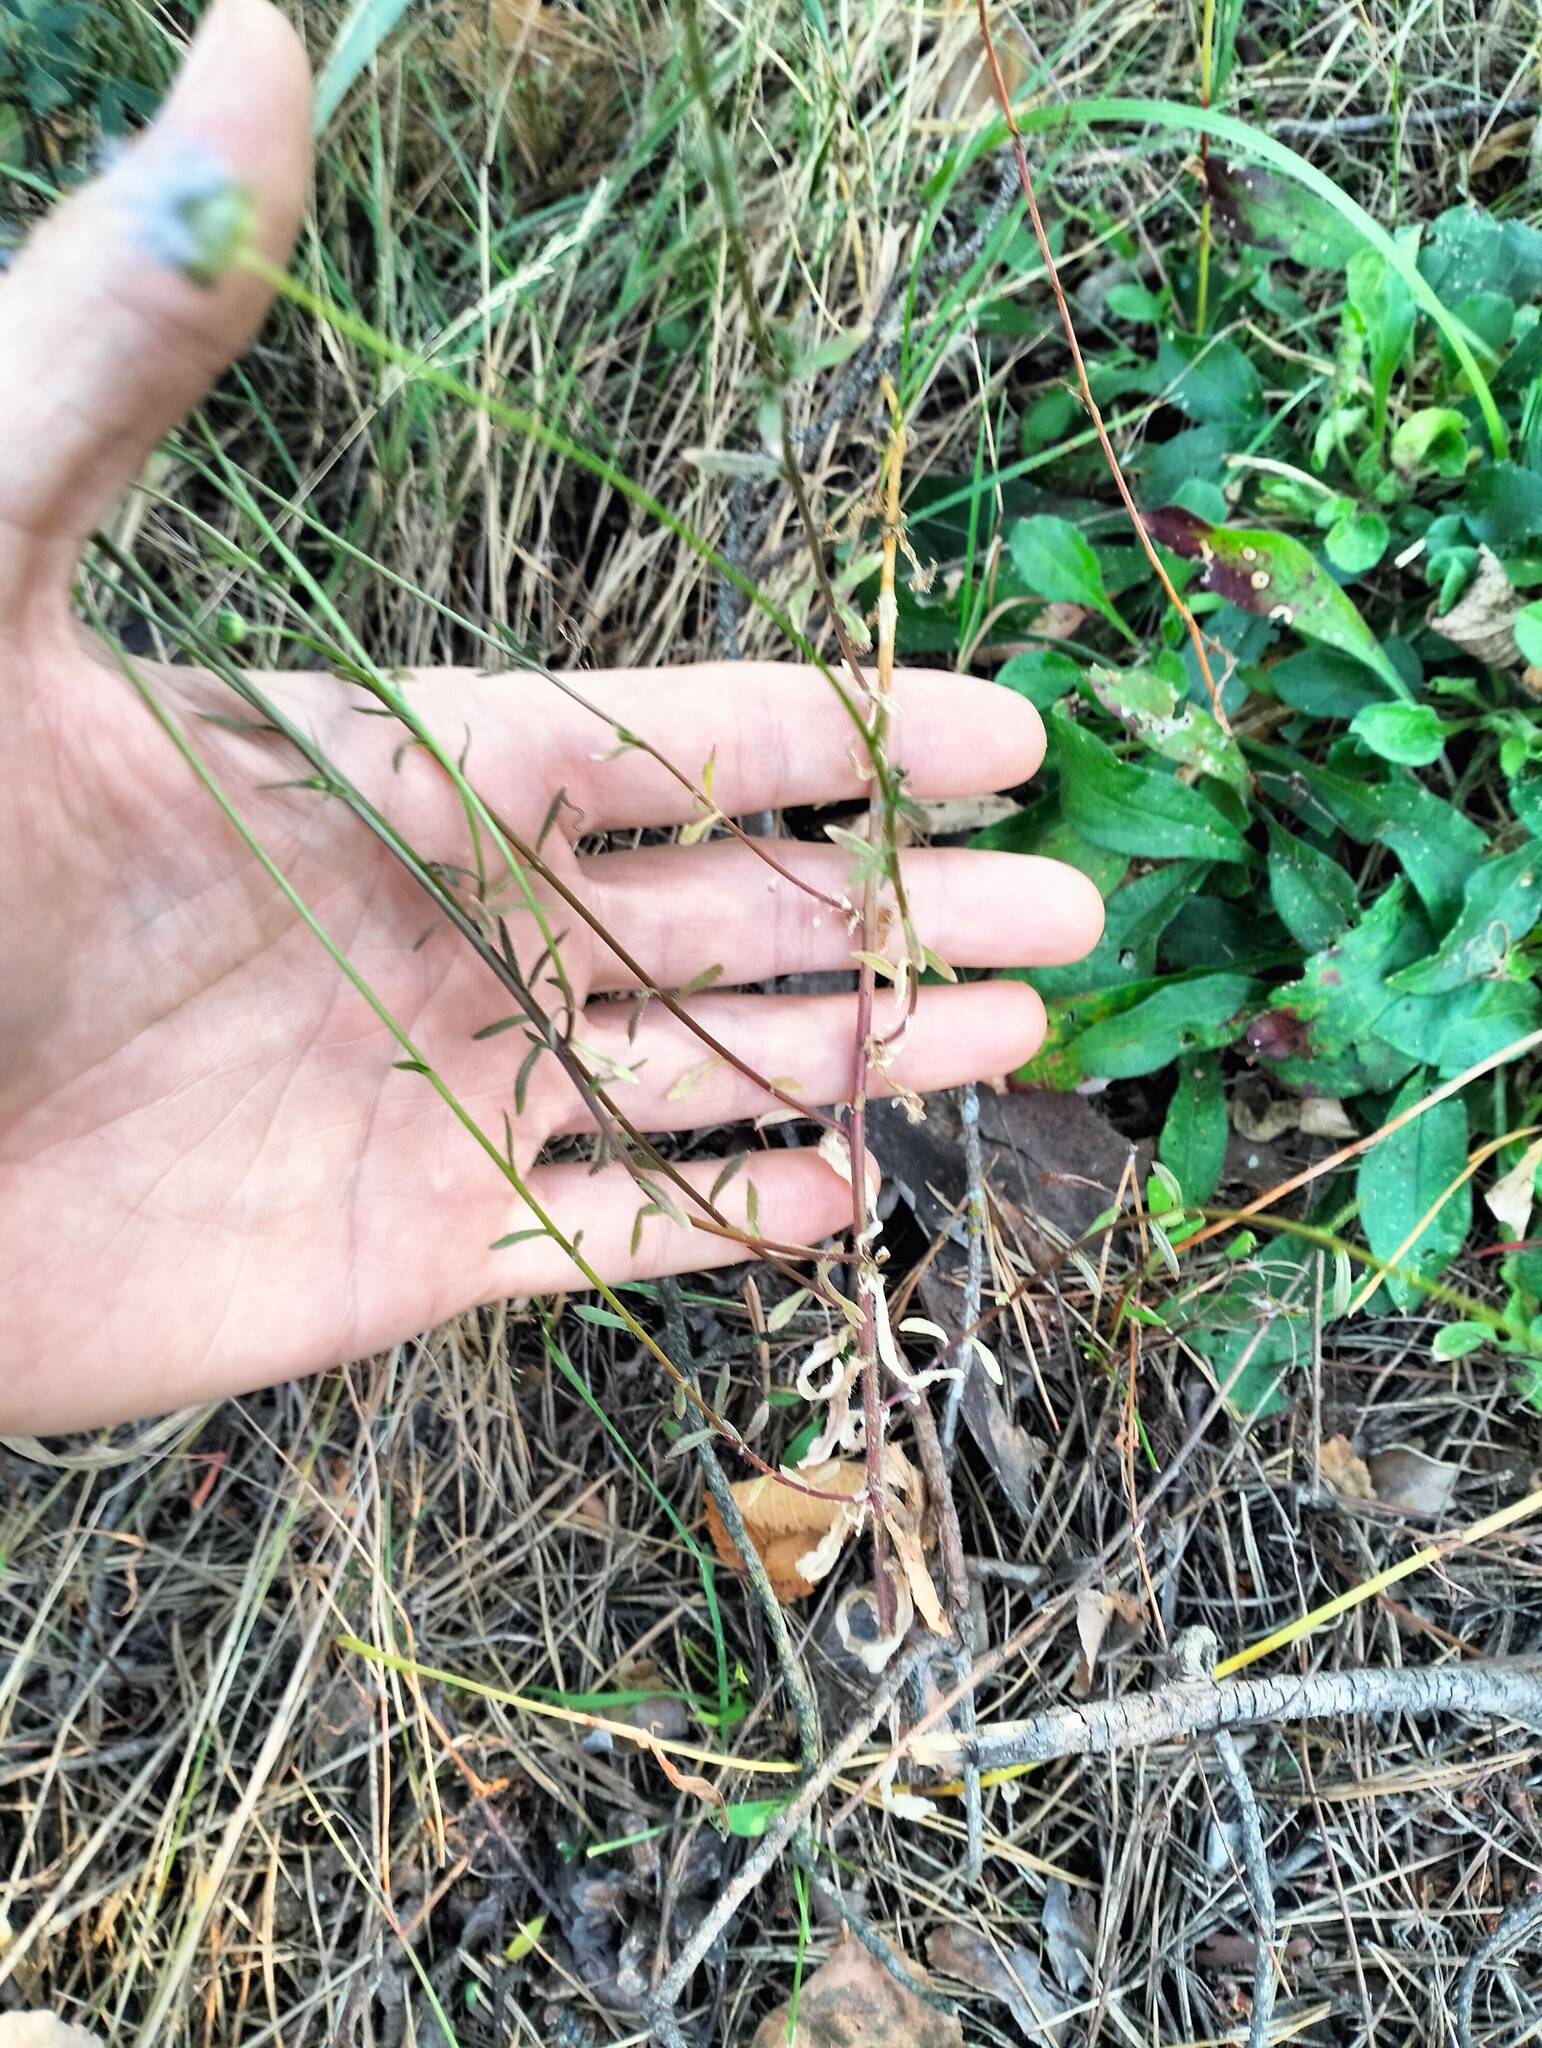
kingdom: Plantae
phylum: Tracheophyta
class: Magnoliopsida
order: Asterales
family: Campanulaceae
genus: Jasione
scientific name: Jasione montana
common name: Sheep's-bit
